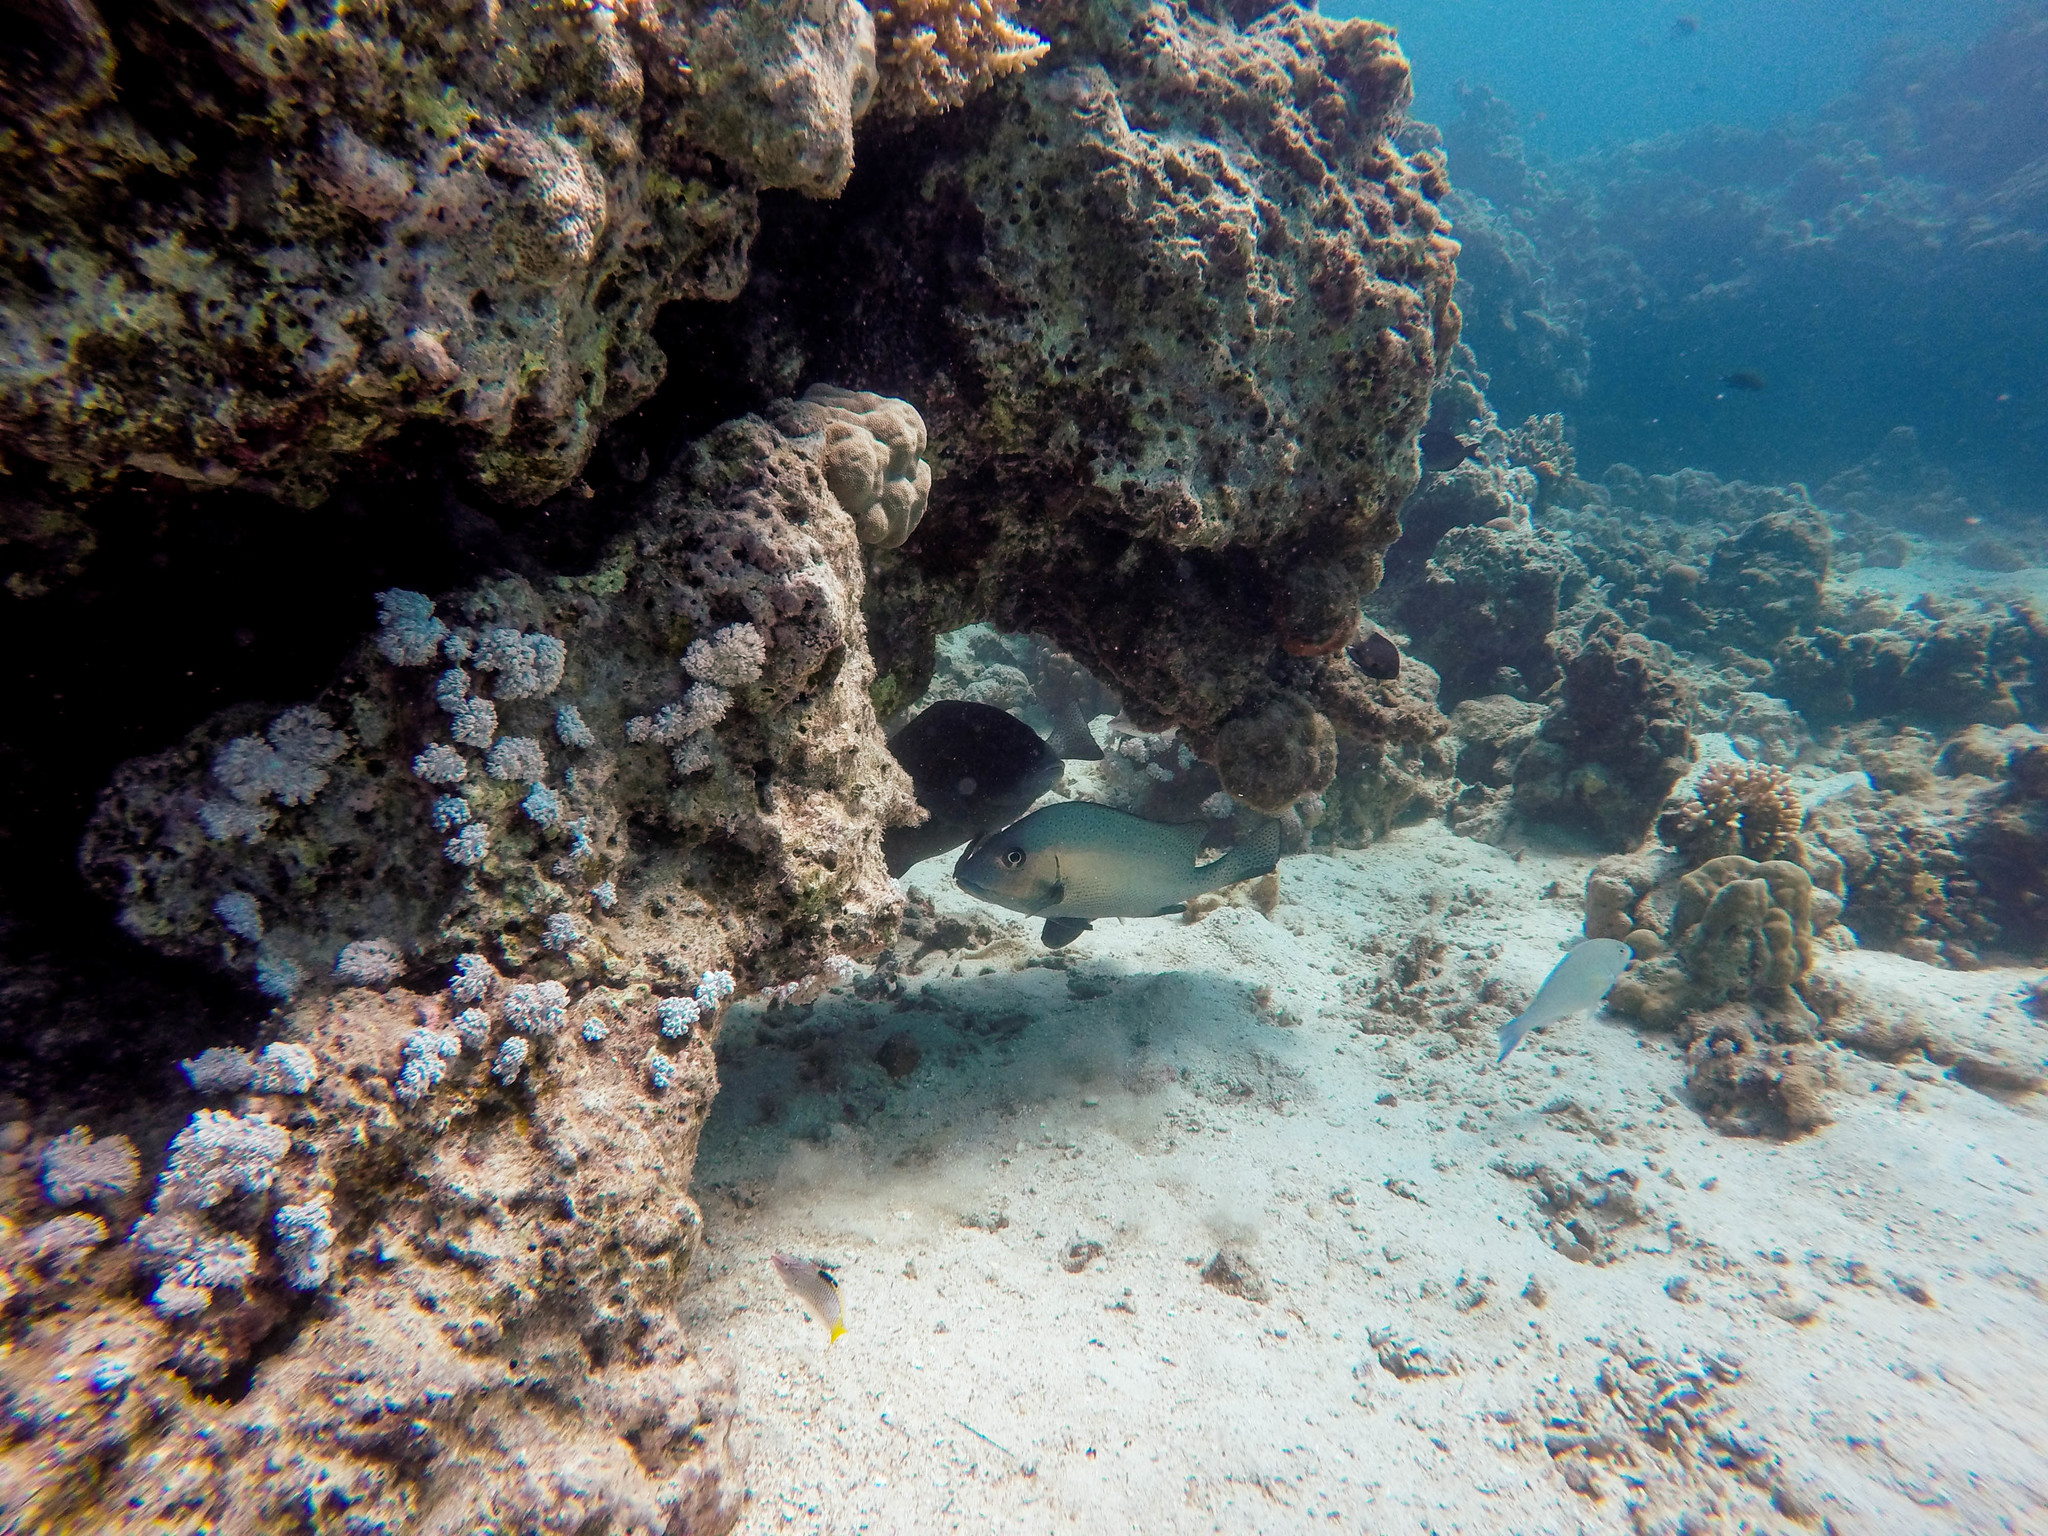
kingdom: Animalia
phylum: Chordata
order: Perciformes
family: Haemulidae
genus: Diagramma
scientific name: Diagramma pictum
